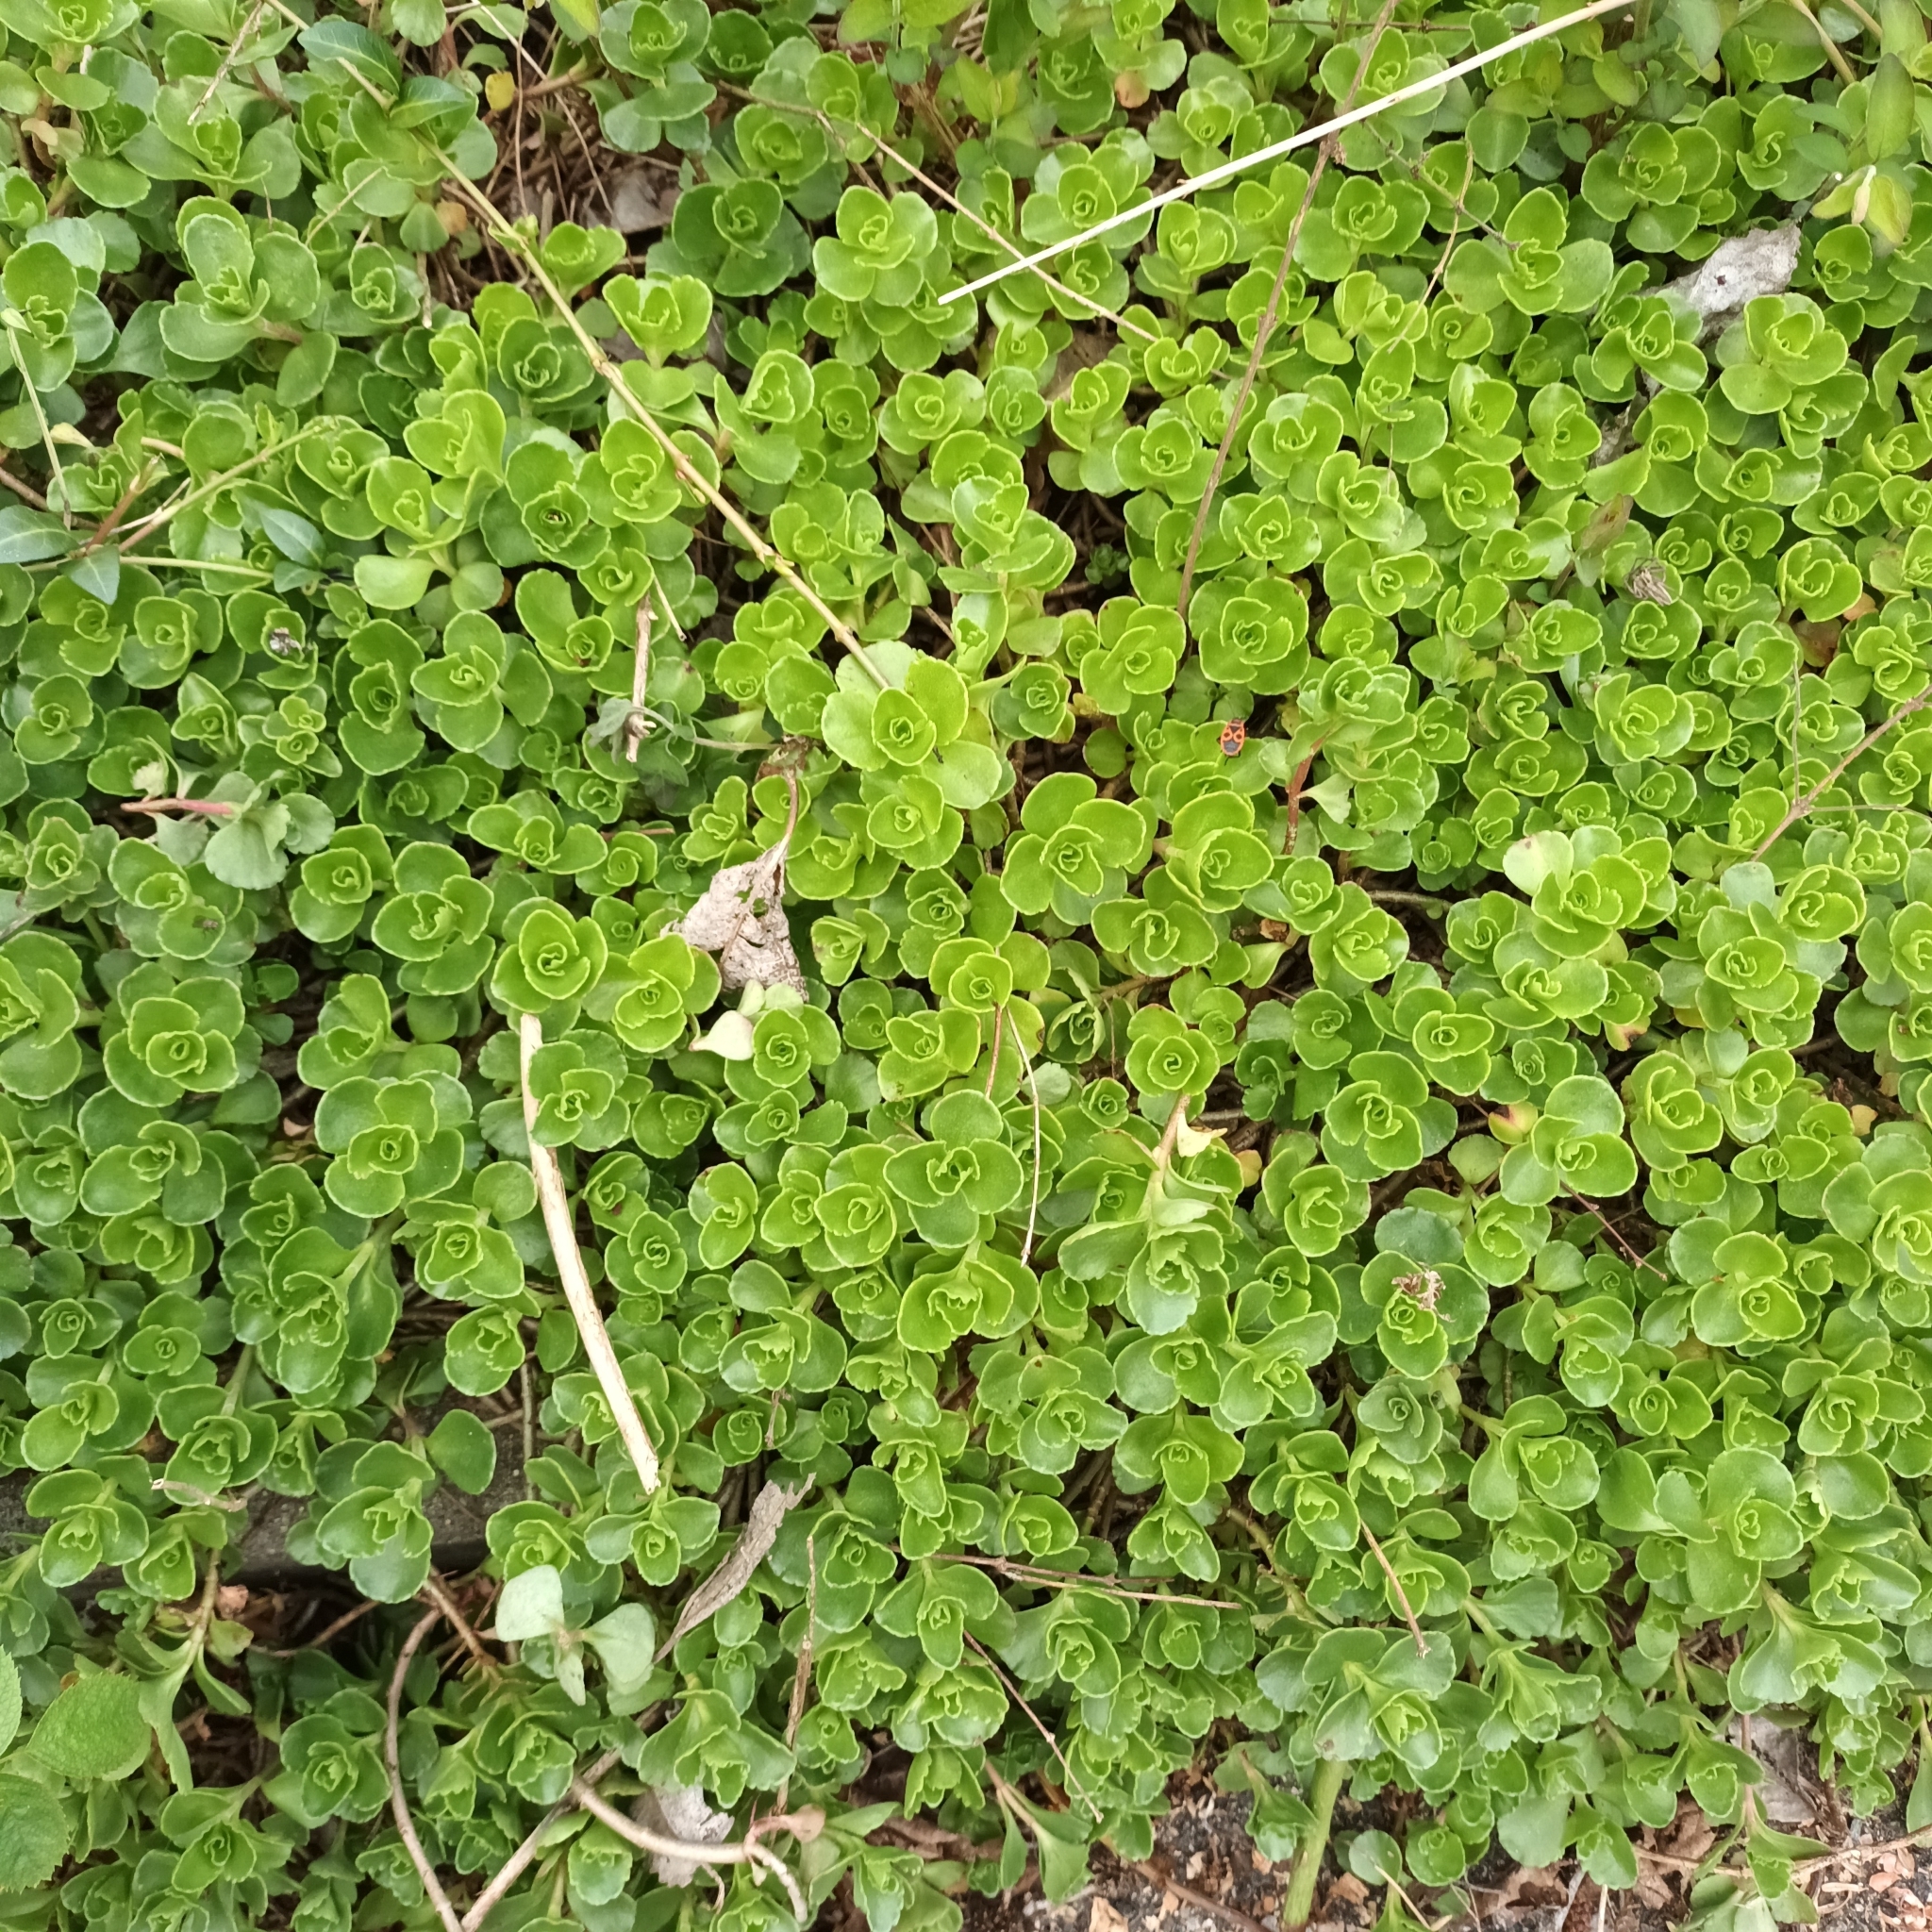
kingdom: Plantae
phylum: Tracheophyta
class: Magnoliopsida
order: Saxifragales
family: Crassulaceae
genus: Phedimus
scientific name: Phedimus spurius
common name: Caucasian stonecrop
